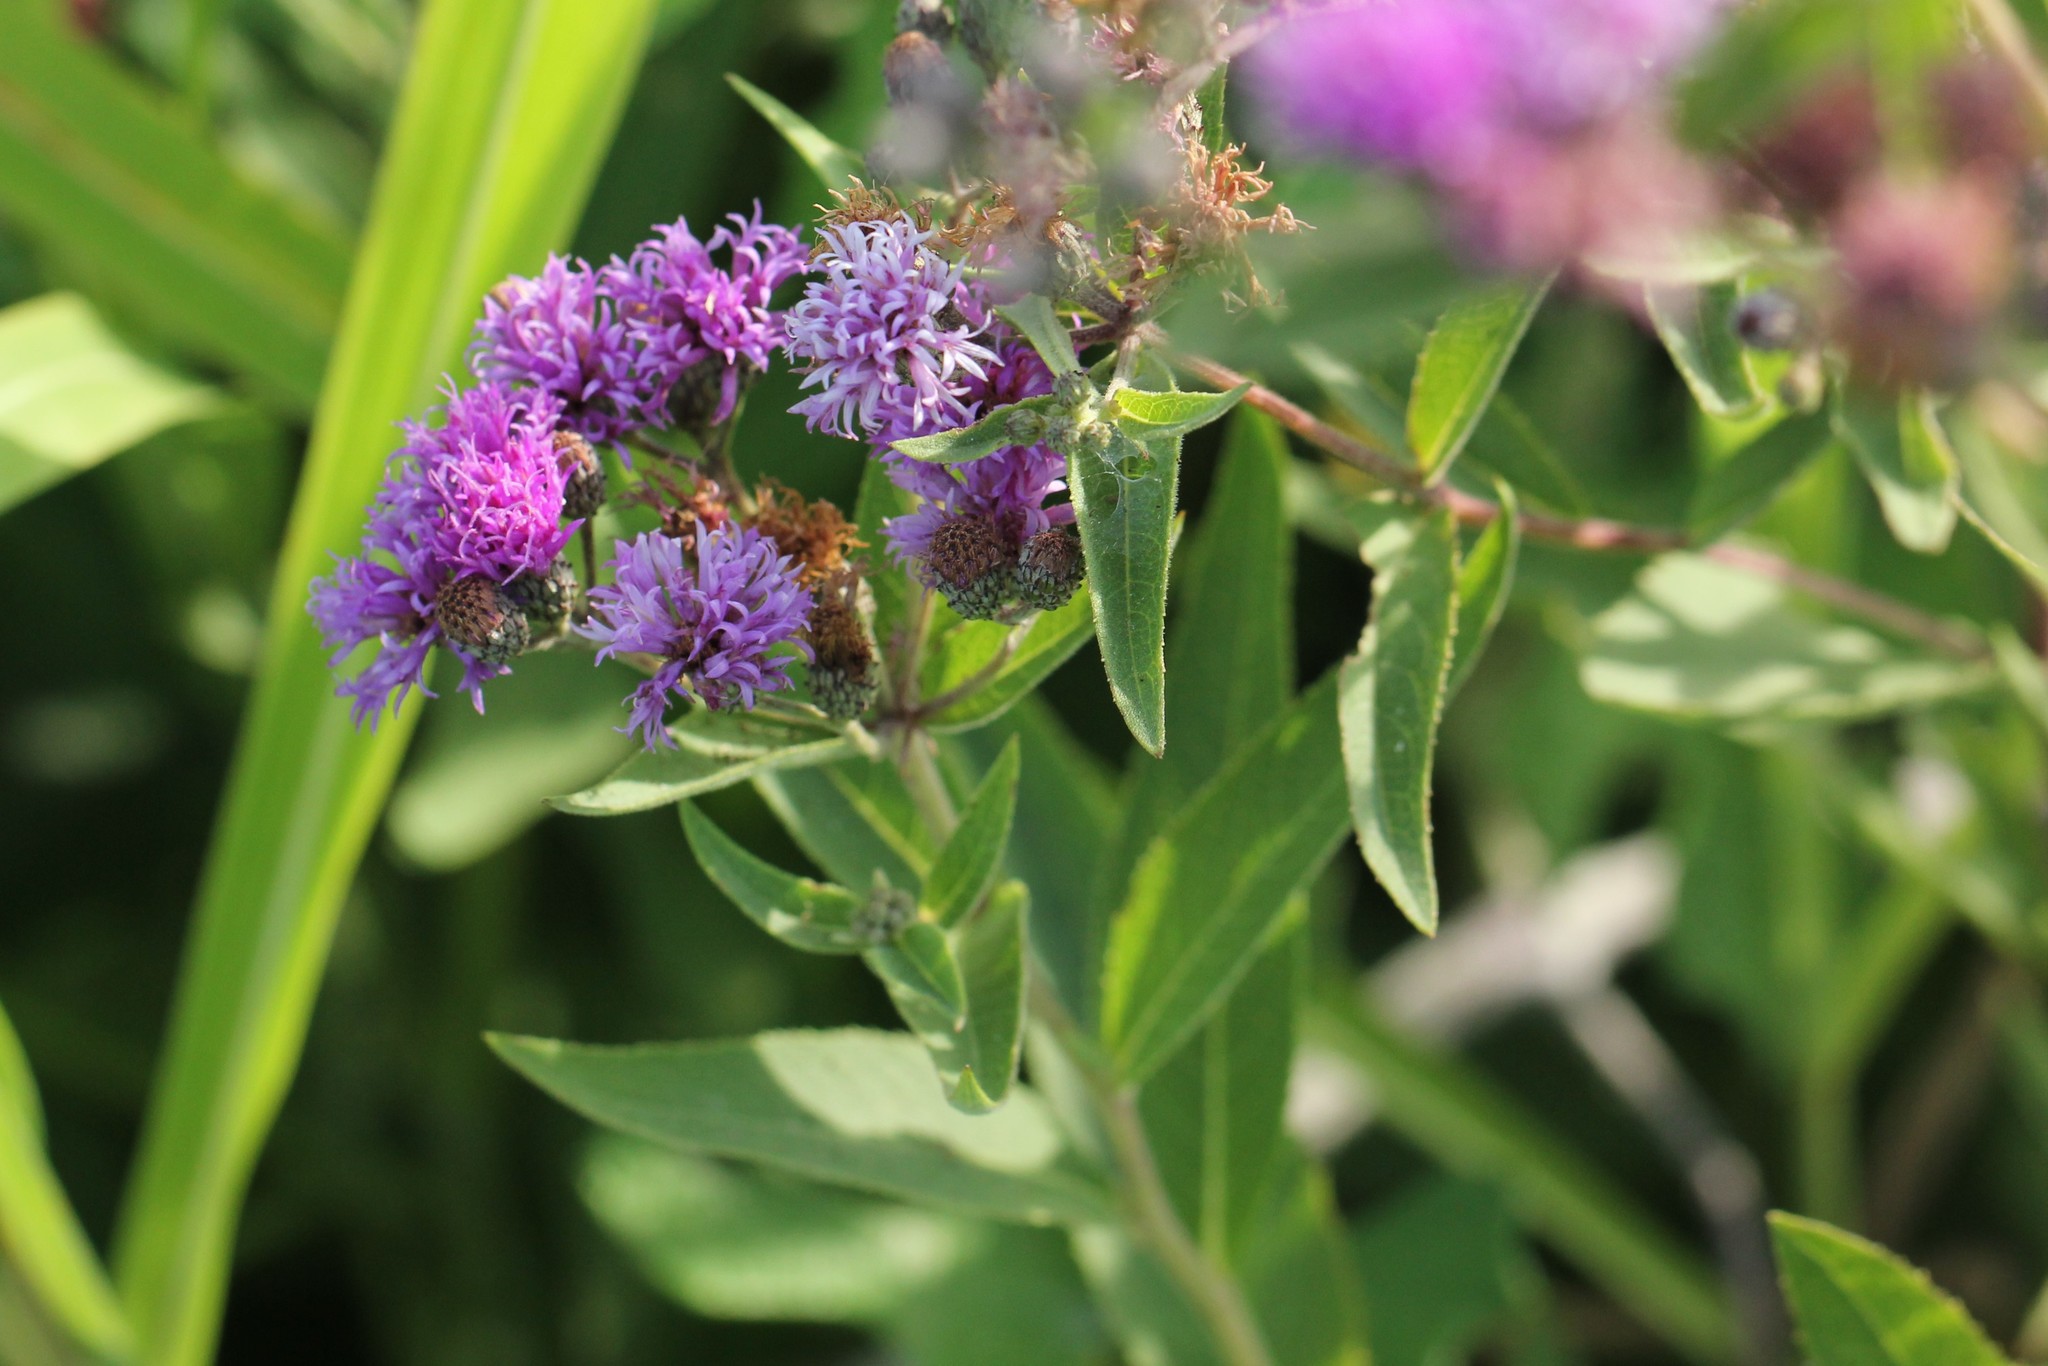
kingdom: Plantae
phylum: Tracheophyta
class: Magnoliopsida
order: Asterales
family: Asteraceae
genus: Vernonia
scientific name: Vernonia baldwinii
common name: Western ironweed
